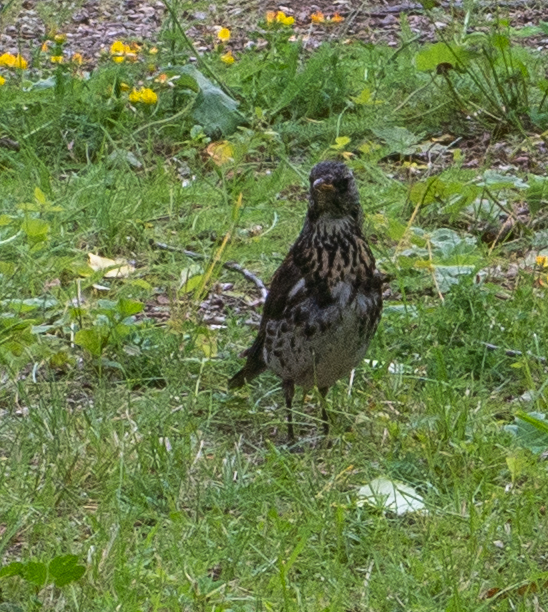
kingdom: Animalia
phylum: Chordata
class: Aves
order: Passeriformes
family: Turdidae
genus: Turdus
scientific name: Turdus pilaris
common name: Fieldfare
